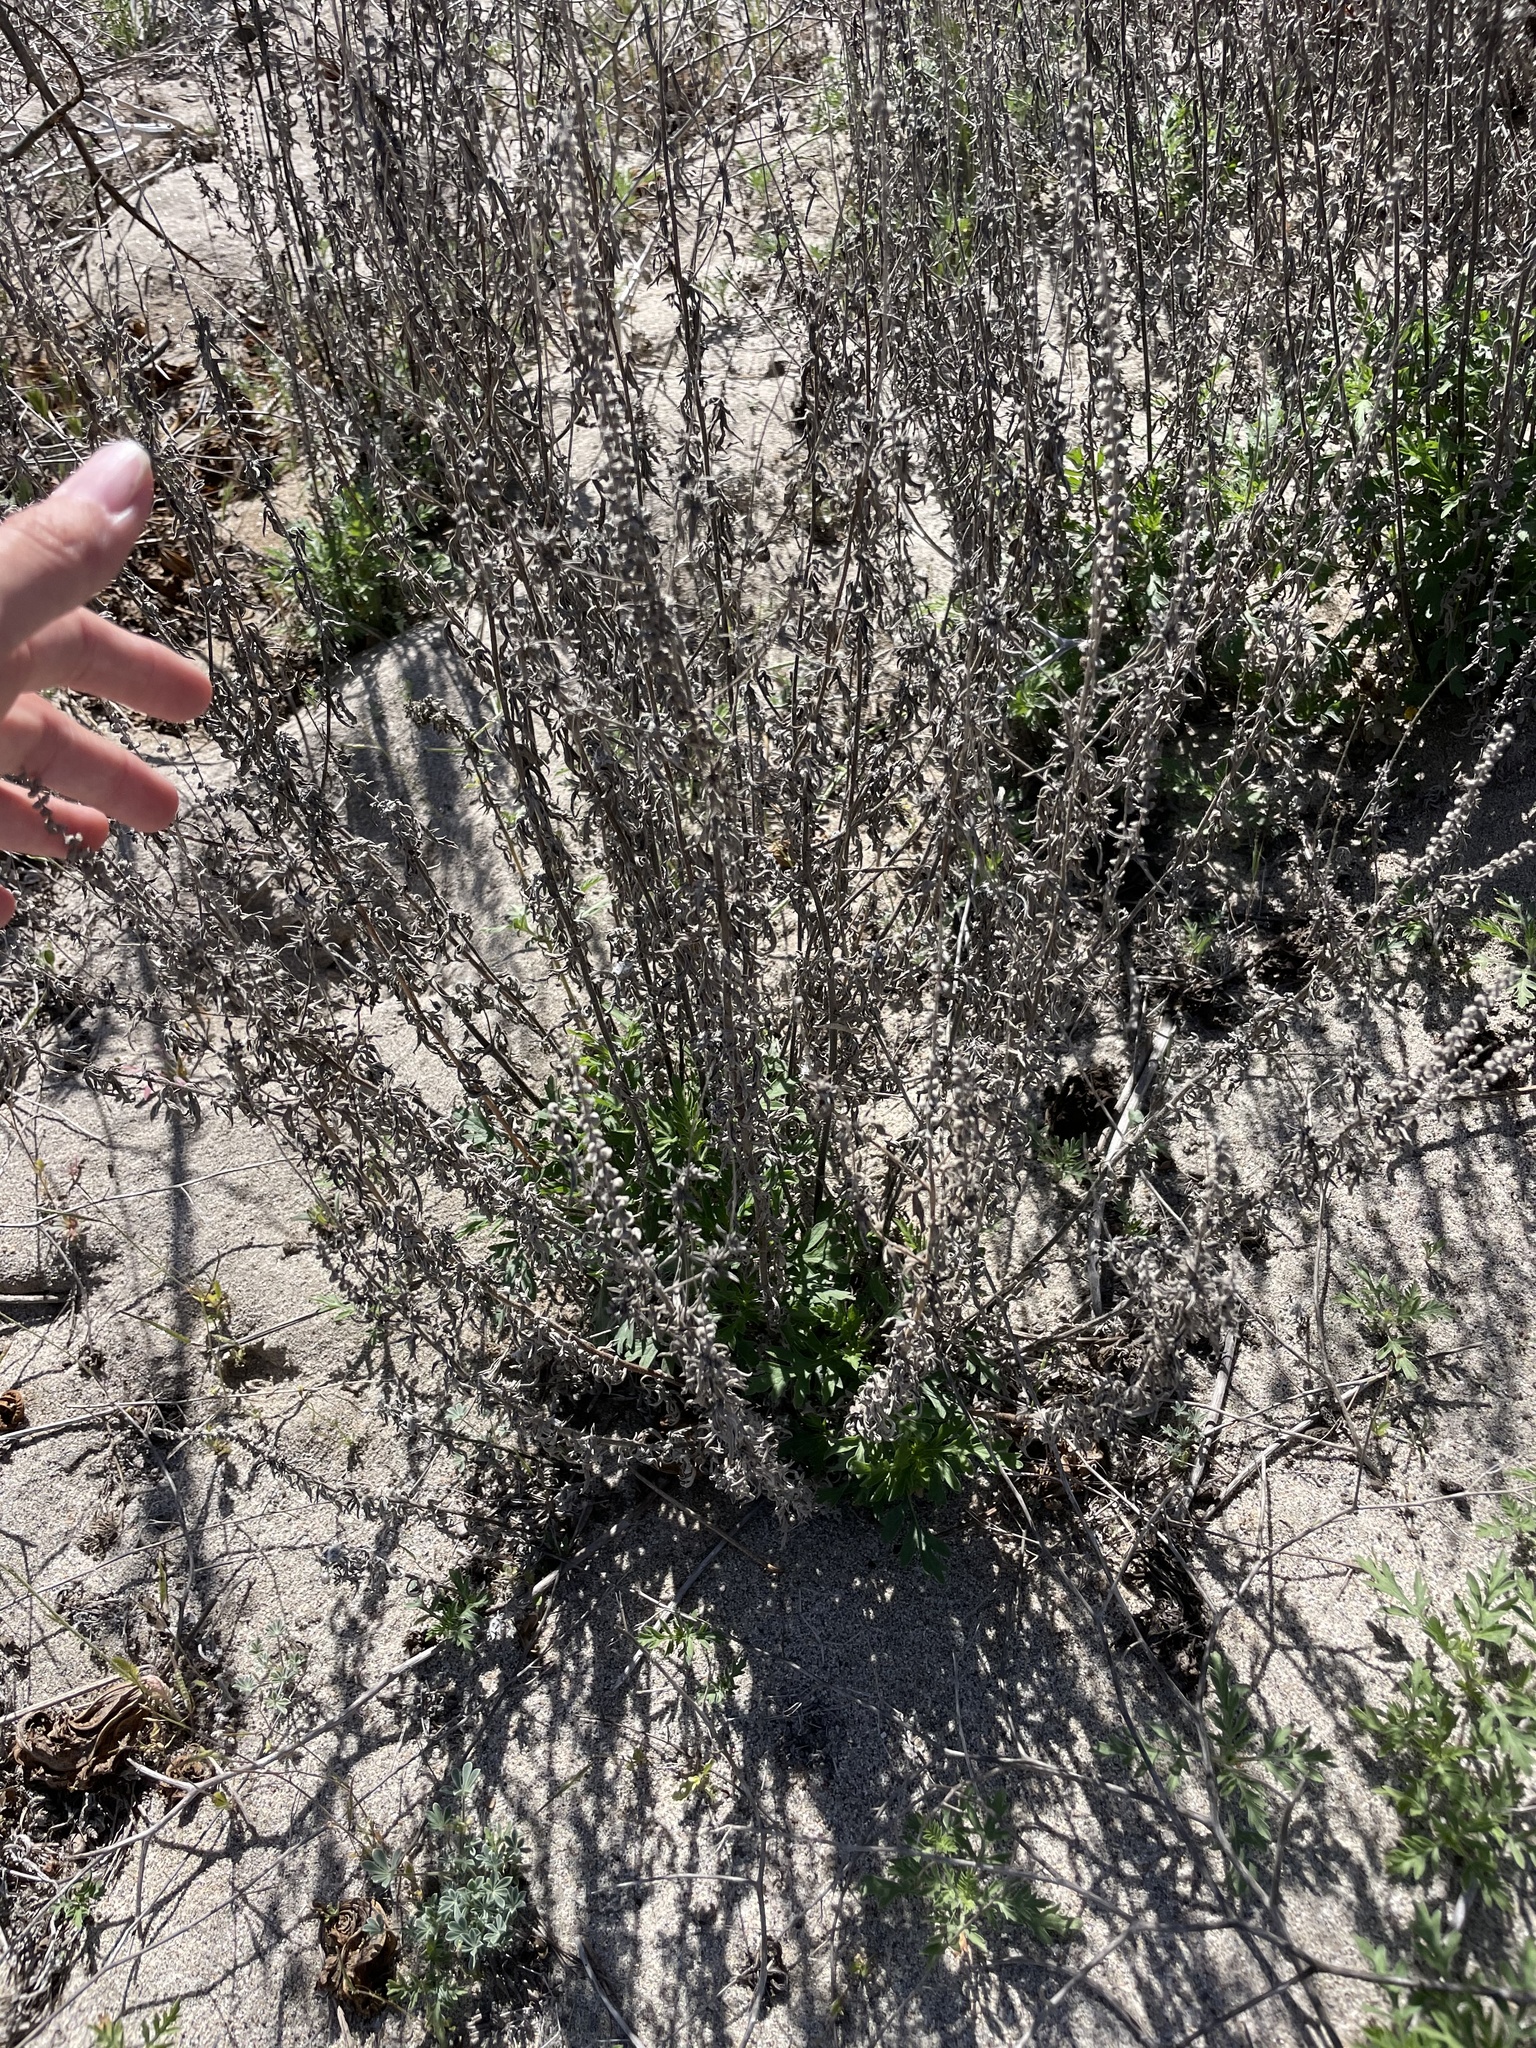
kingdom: Plantae
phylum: Tracheophyta
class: Magnoliopsida
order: Asterales
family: Asteraceae
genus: Ambrosia
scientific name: Ambrosia psilostachya
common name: Perennial ragweed
